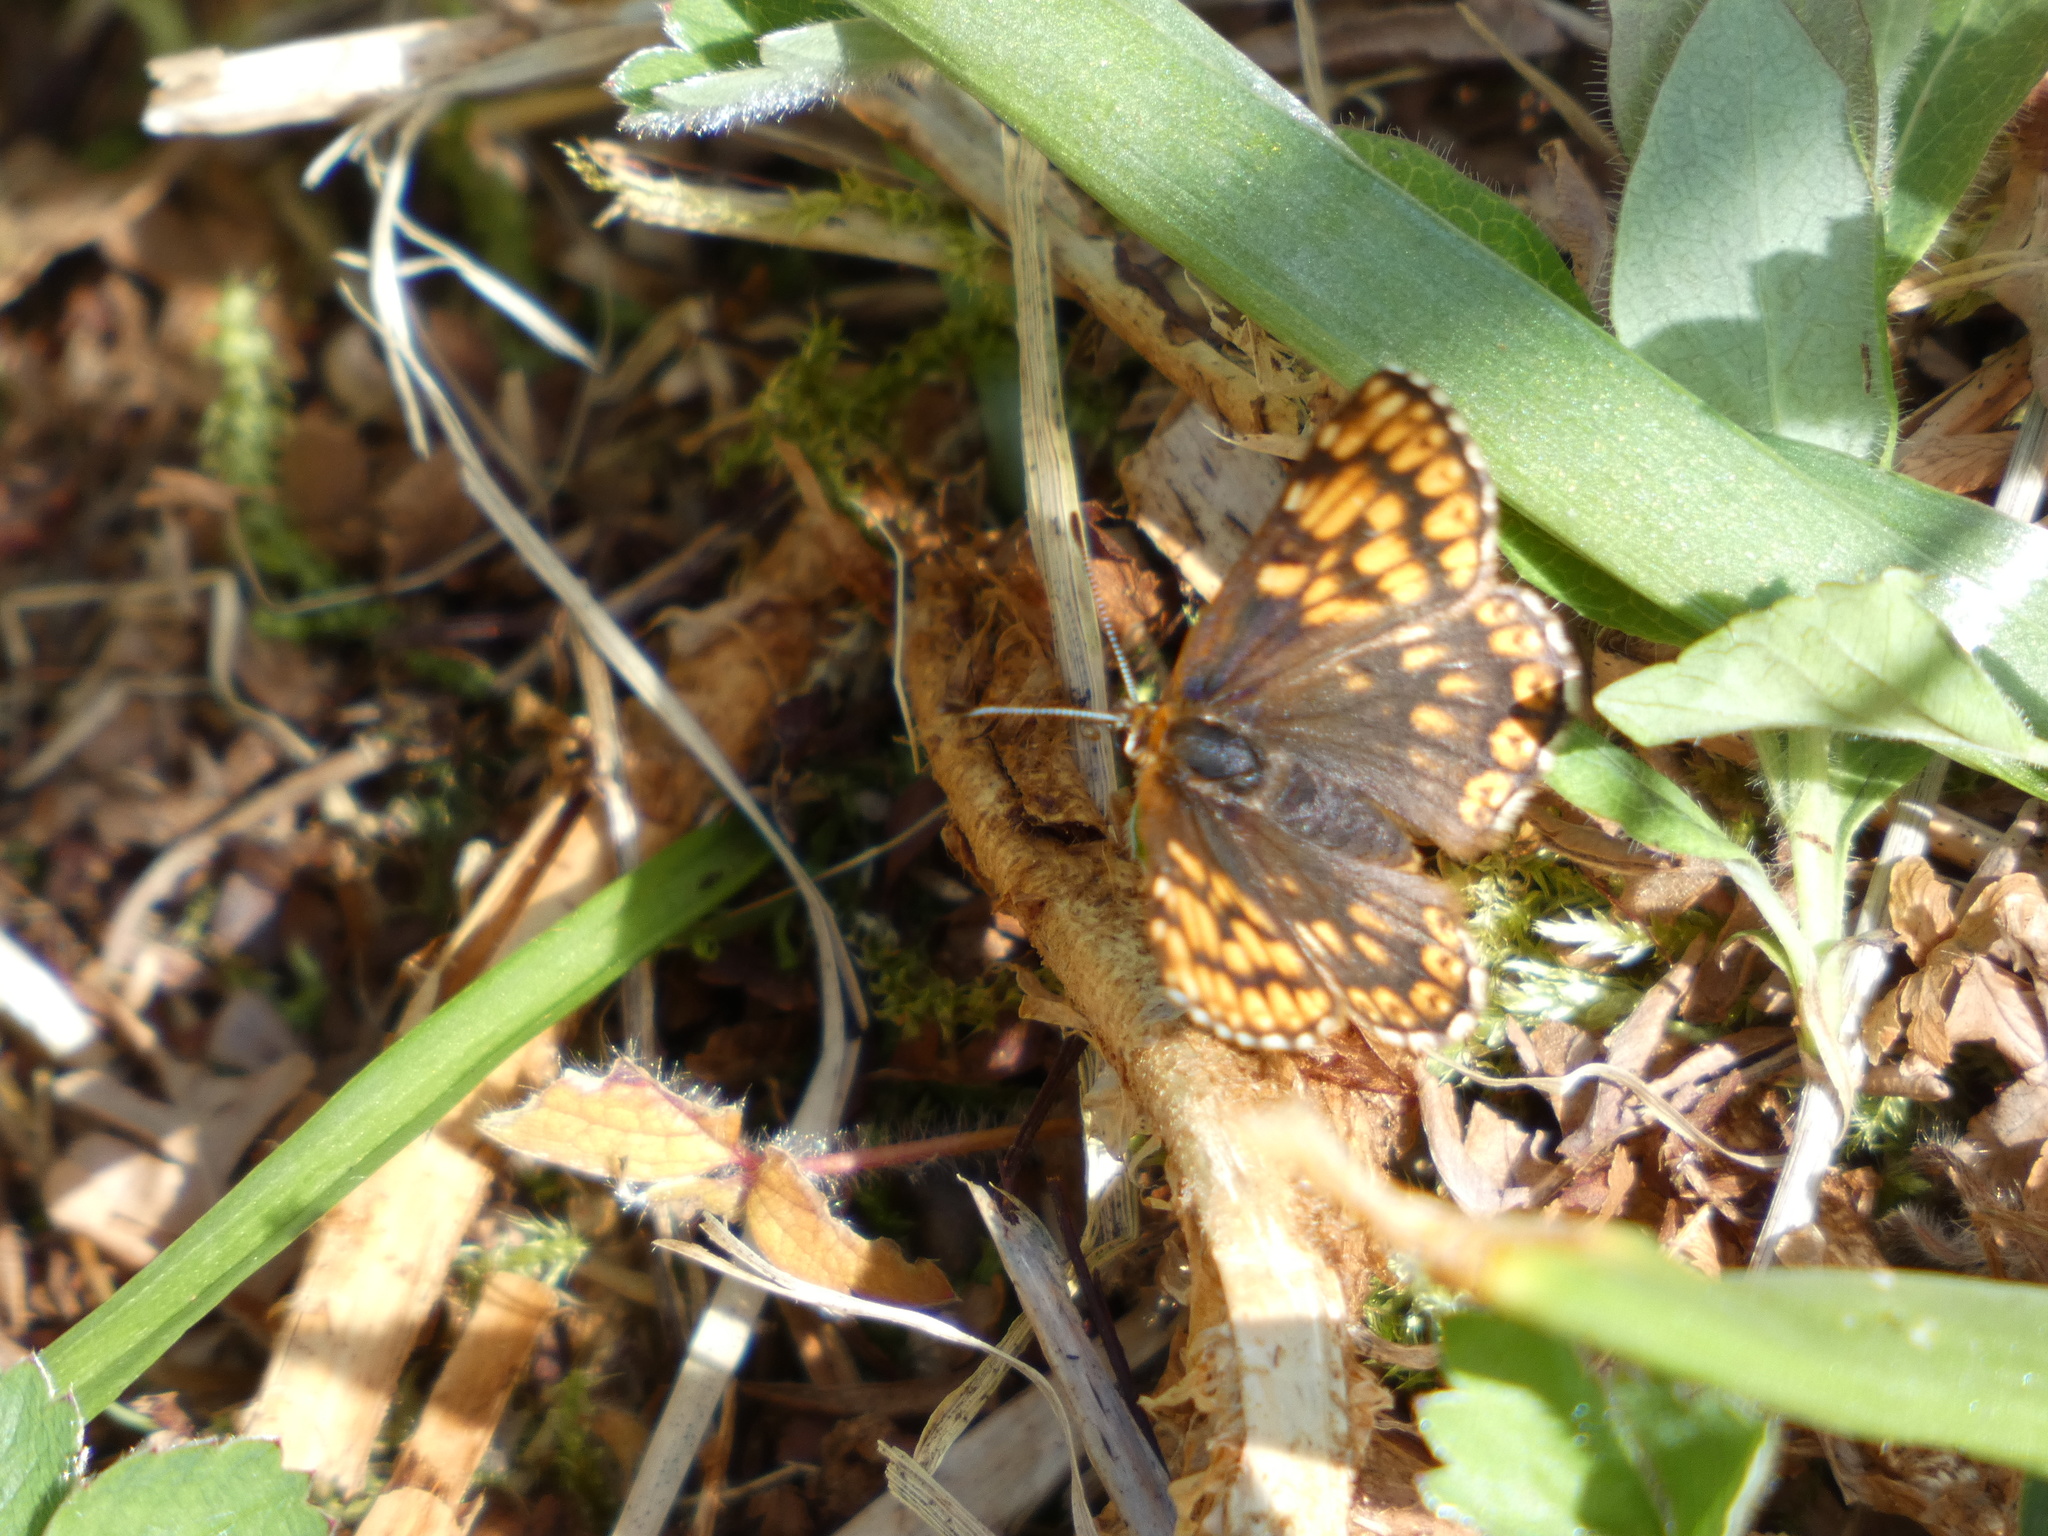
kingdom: Animalia
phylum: Arthropoda
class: Insecta
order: Lepidoptera
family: Riodinidae
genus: Hamearis
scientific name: Hamearis lucina
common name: Duke of burgundy fritillary
